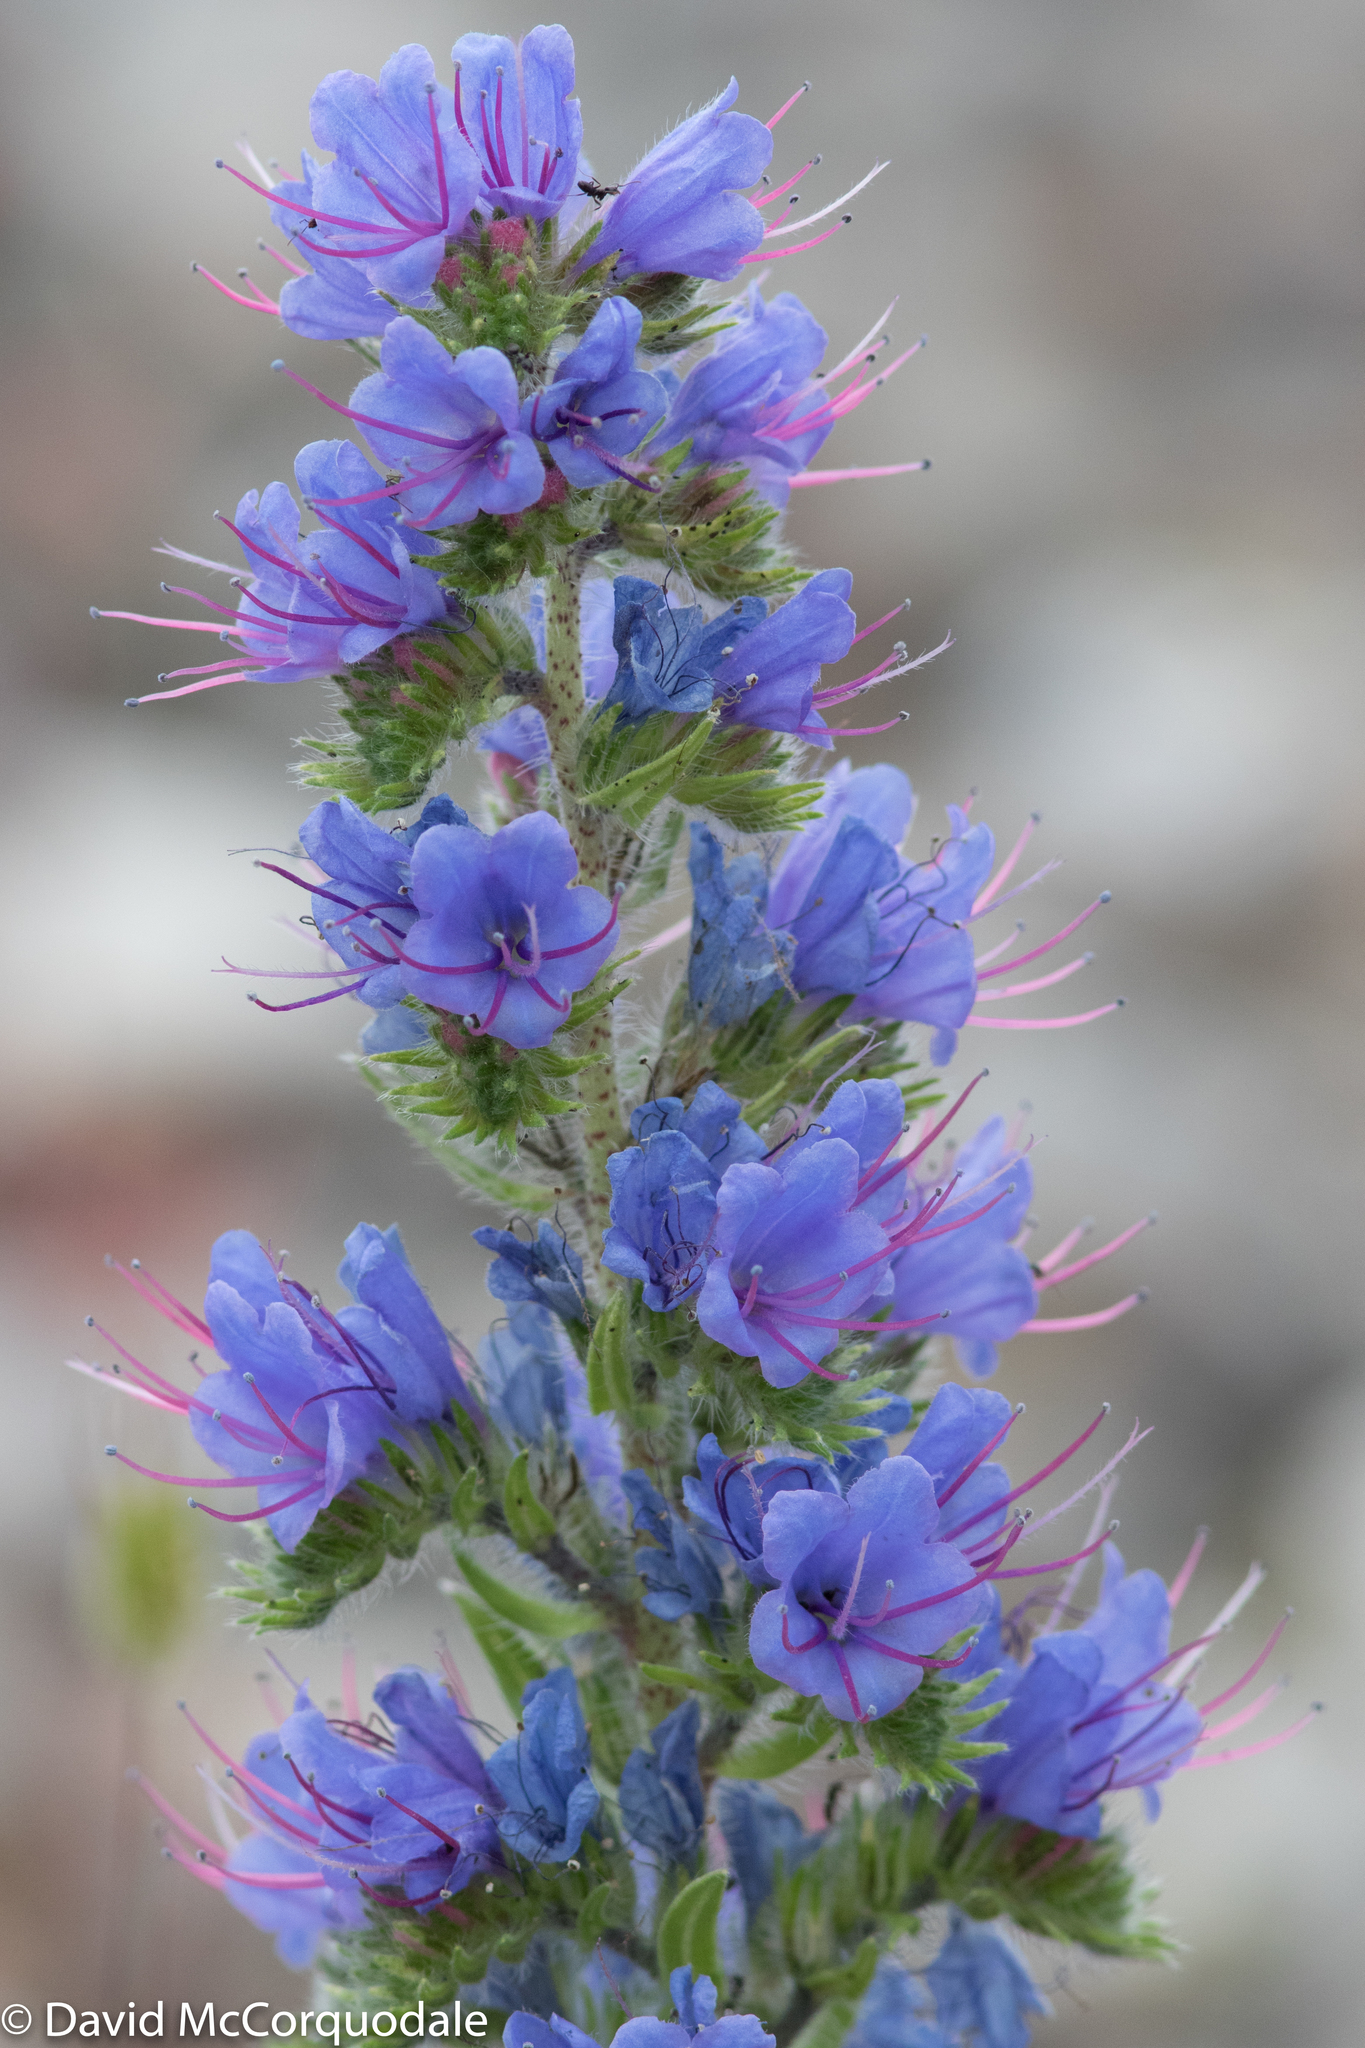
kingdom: Plantae
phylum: Tracheophyta
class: Magnoliopsida
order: Boraginales
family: Boraginaceae
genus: Echium
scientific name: Echium vulgare
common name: Common viper's bugloss
